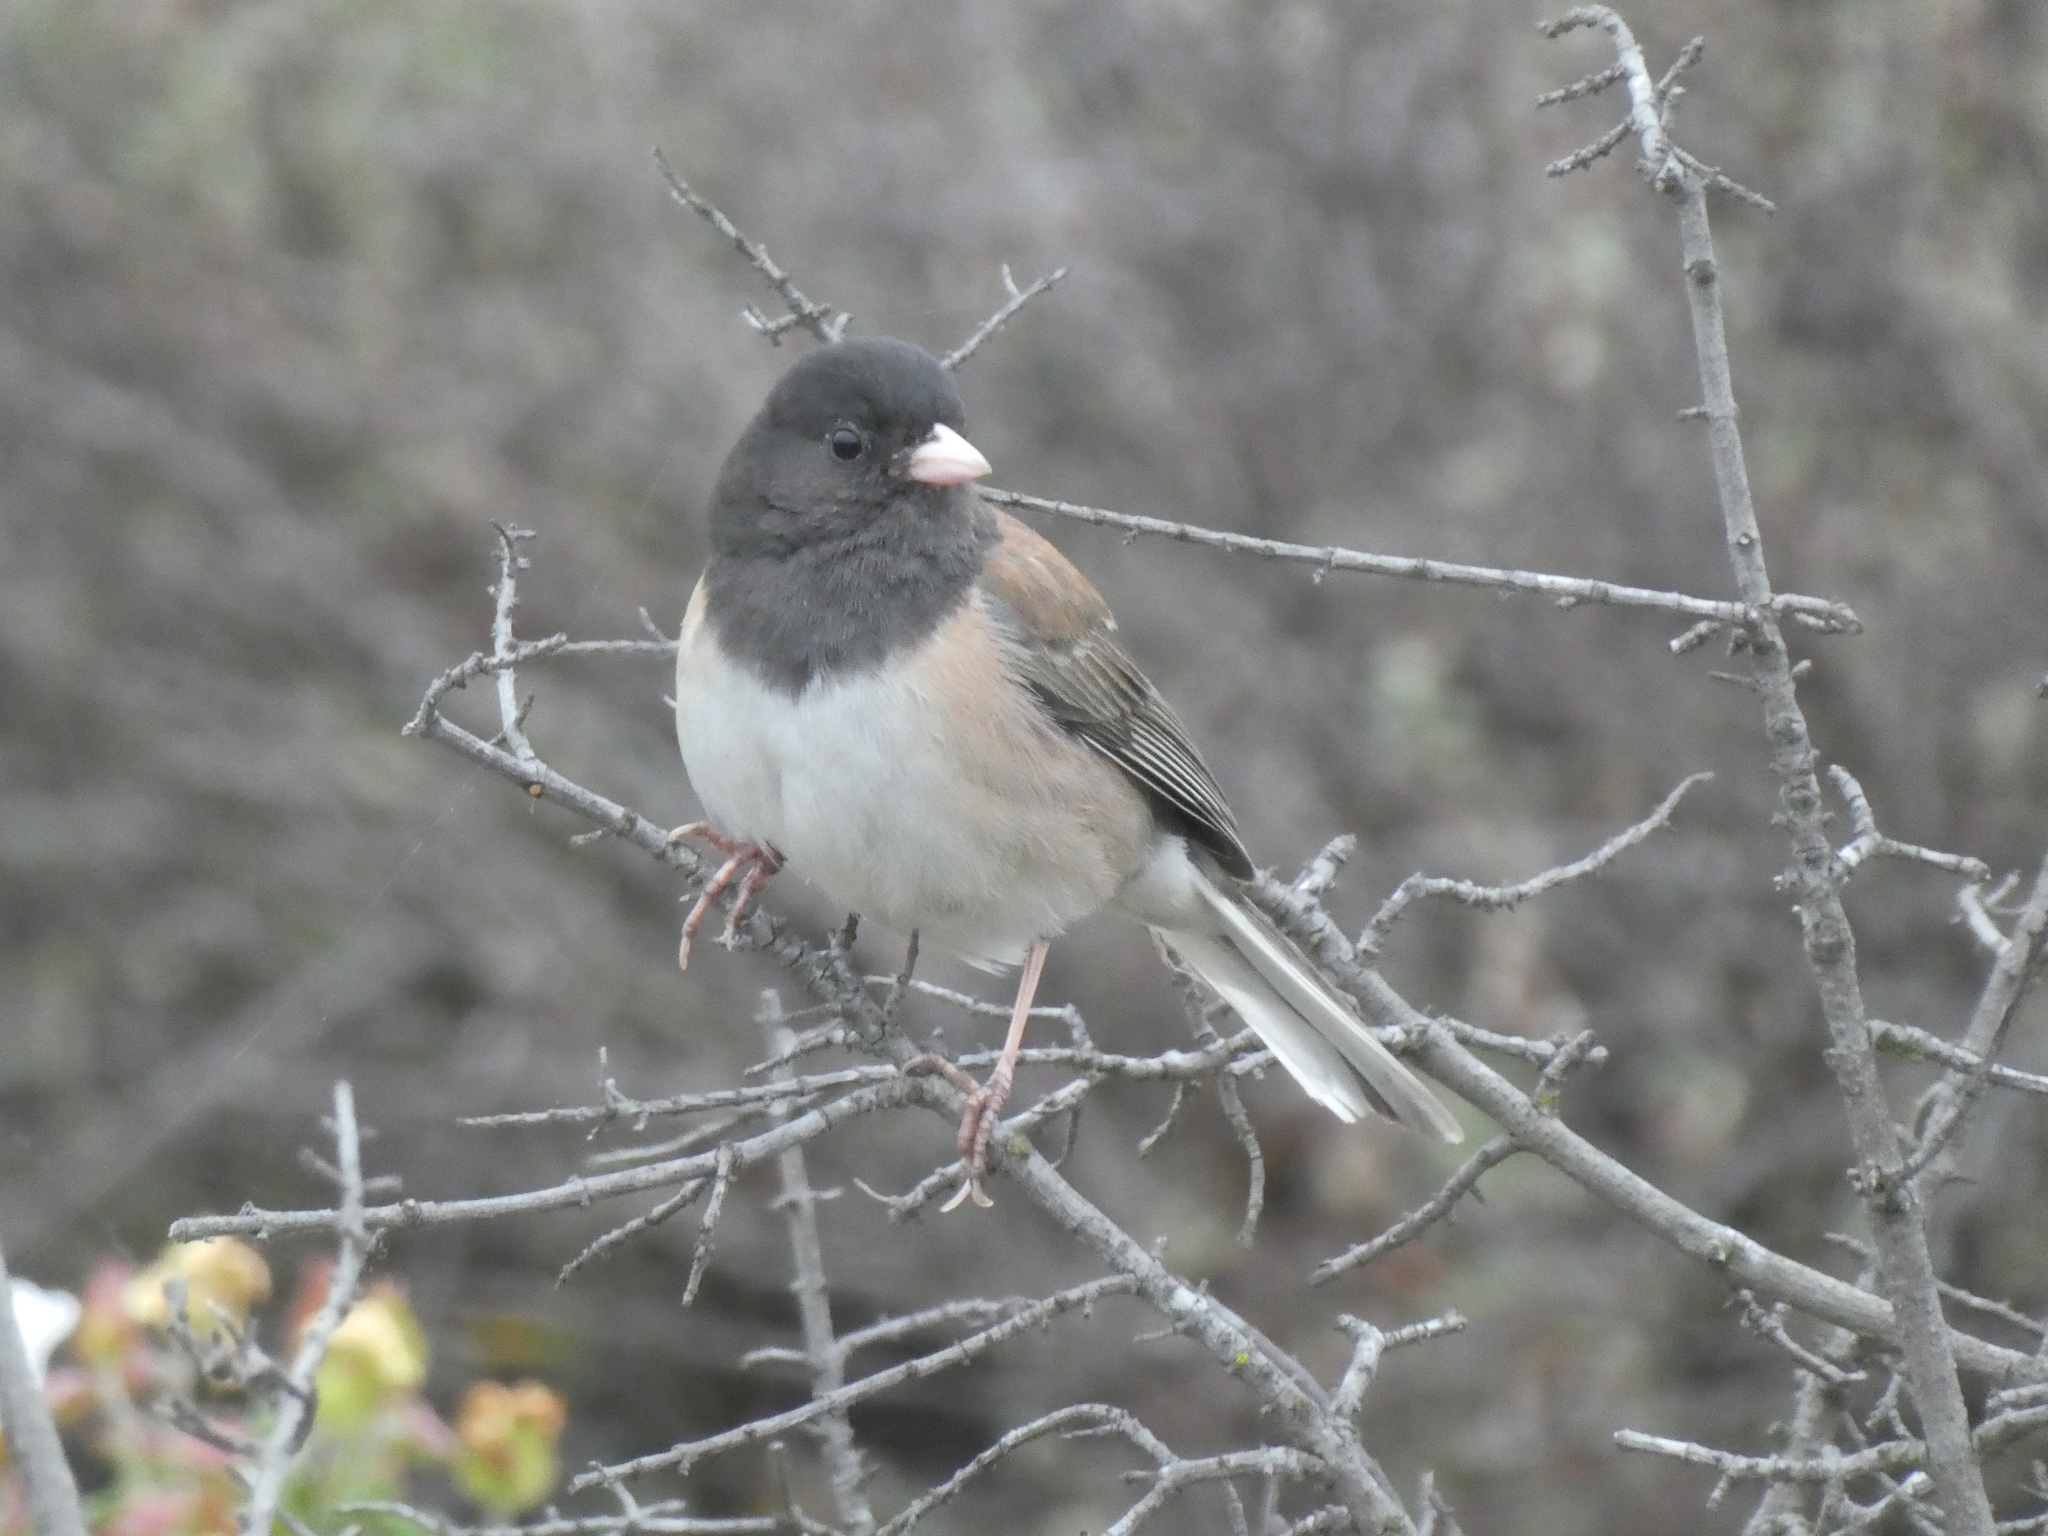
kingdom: Animalia
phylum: Chordata
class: Aves
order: Passeriformes
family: Passerellidae
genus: Junco
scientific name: Junco hyemalis
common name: Dark-eyed junco
